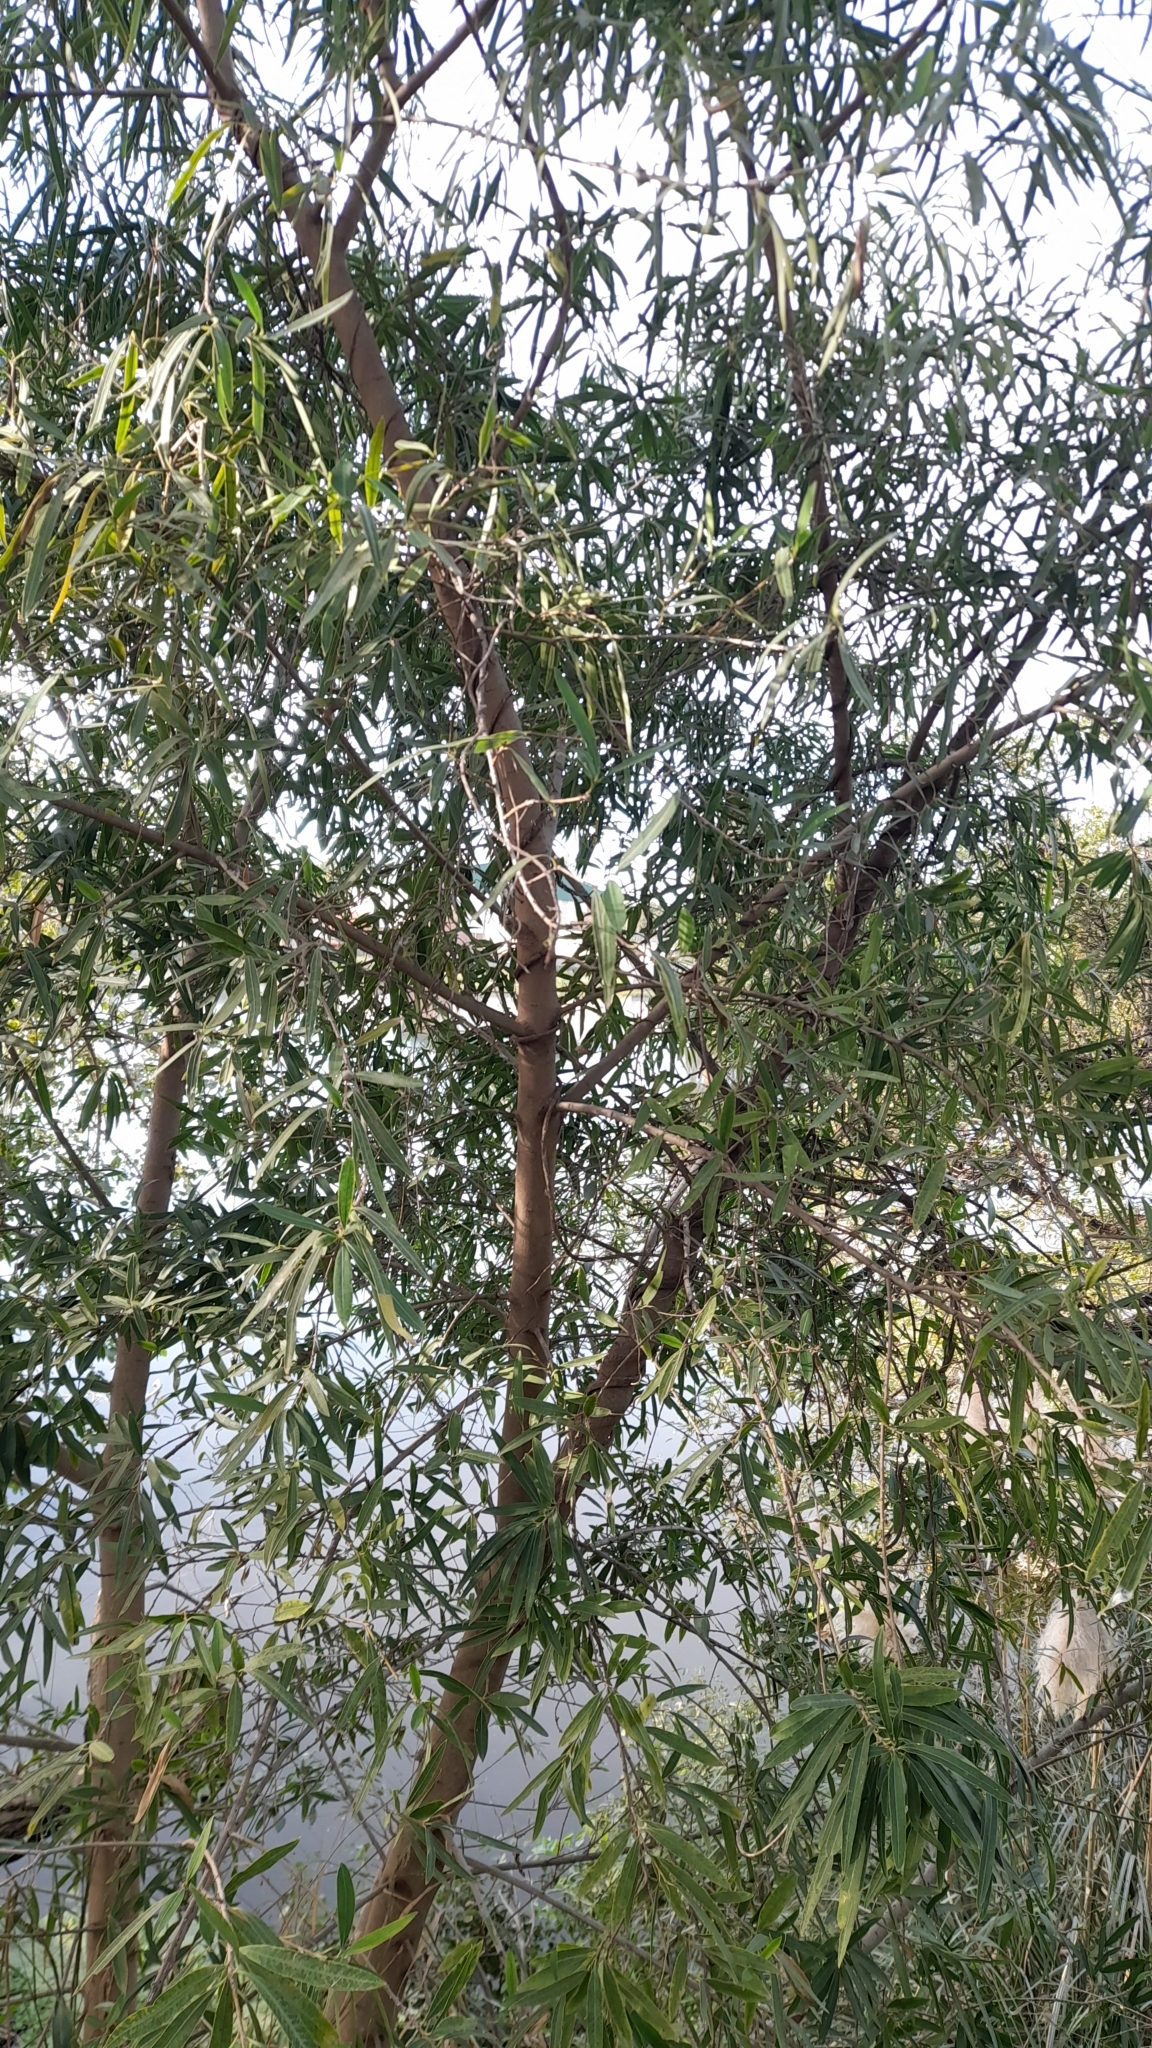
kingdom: Plantae
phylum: Tracheophyta
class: Magnoliopsida
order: Malpighiales
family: Euphorbiaceae
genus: Sapium
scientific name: Sapium haematospermum
